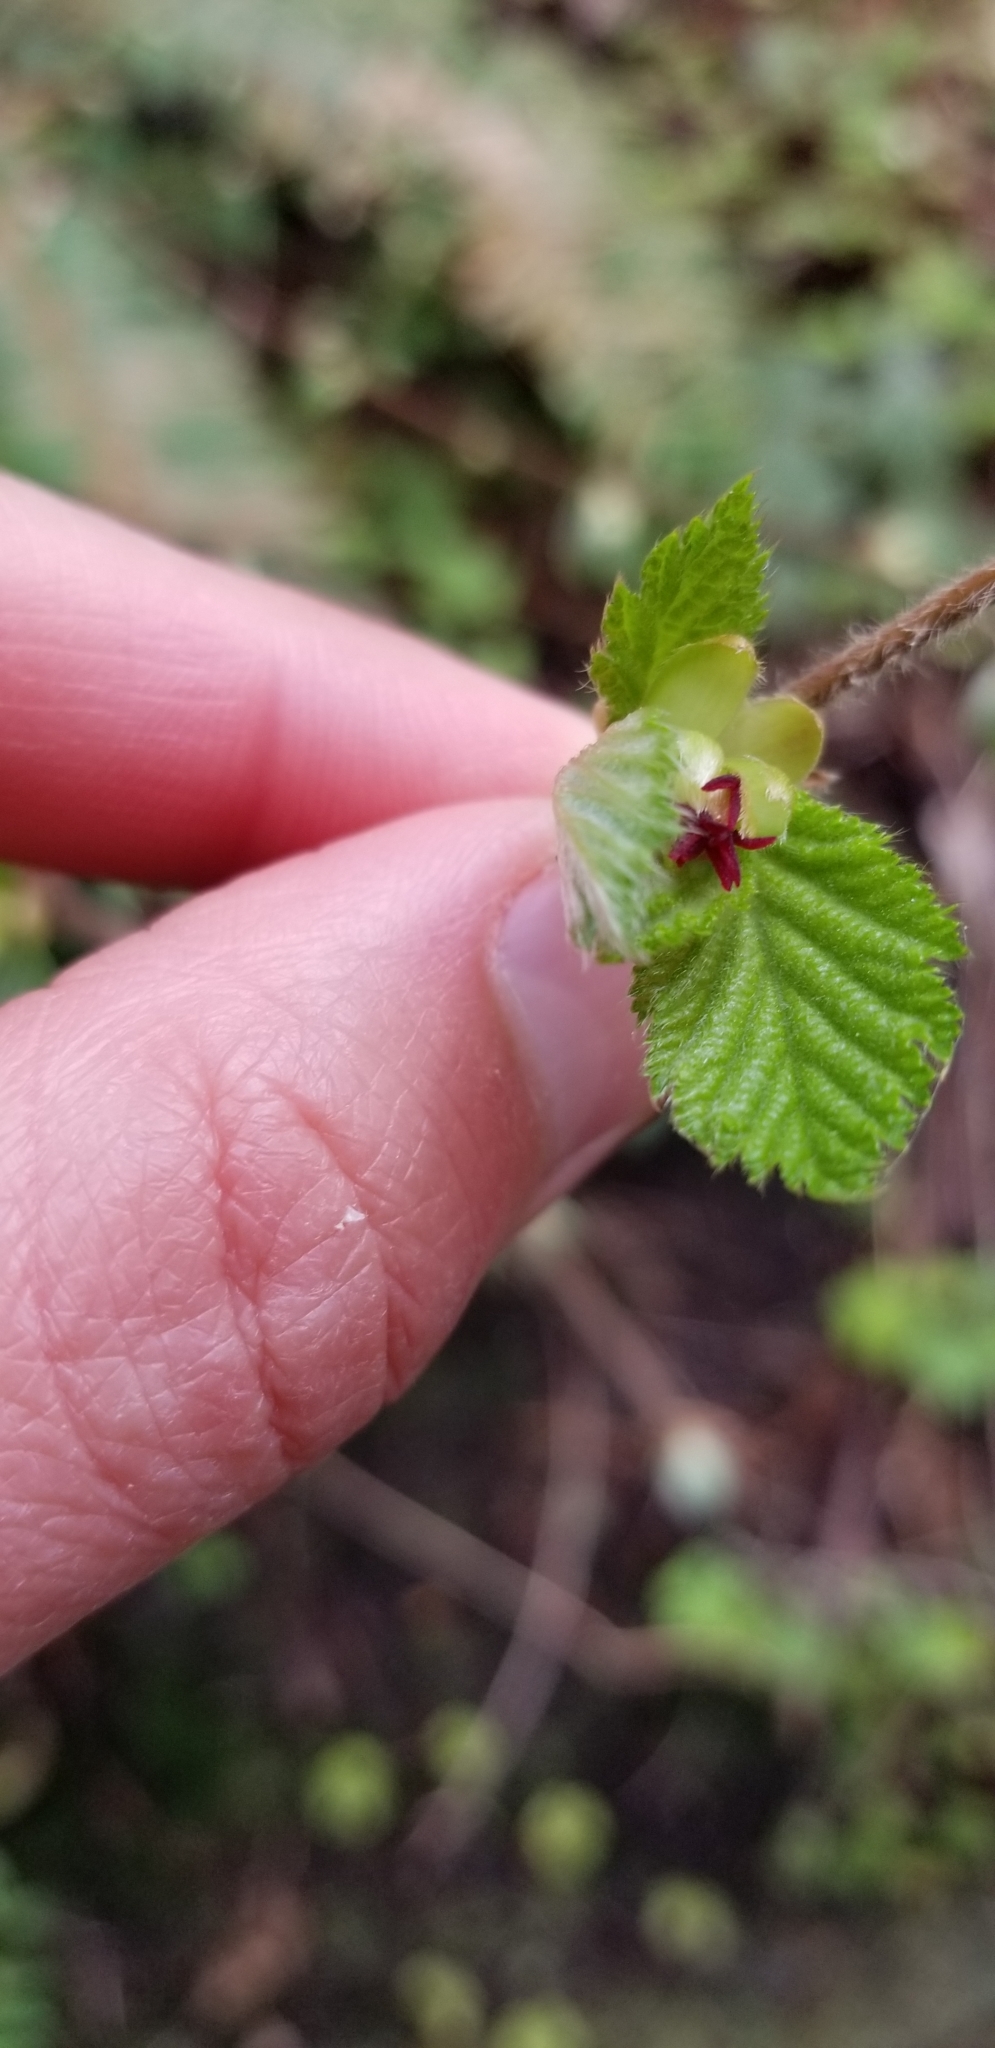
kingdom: Plantae
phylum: Tracheophyta
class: Magnoliopsida
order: Fagales
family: Betulaceae
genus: Corylus
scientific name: Corylus cornuta
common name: Beaked hazel
